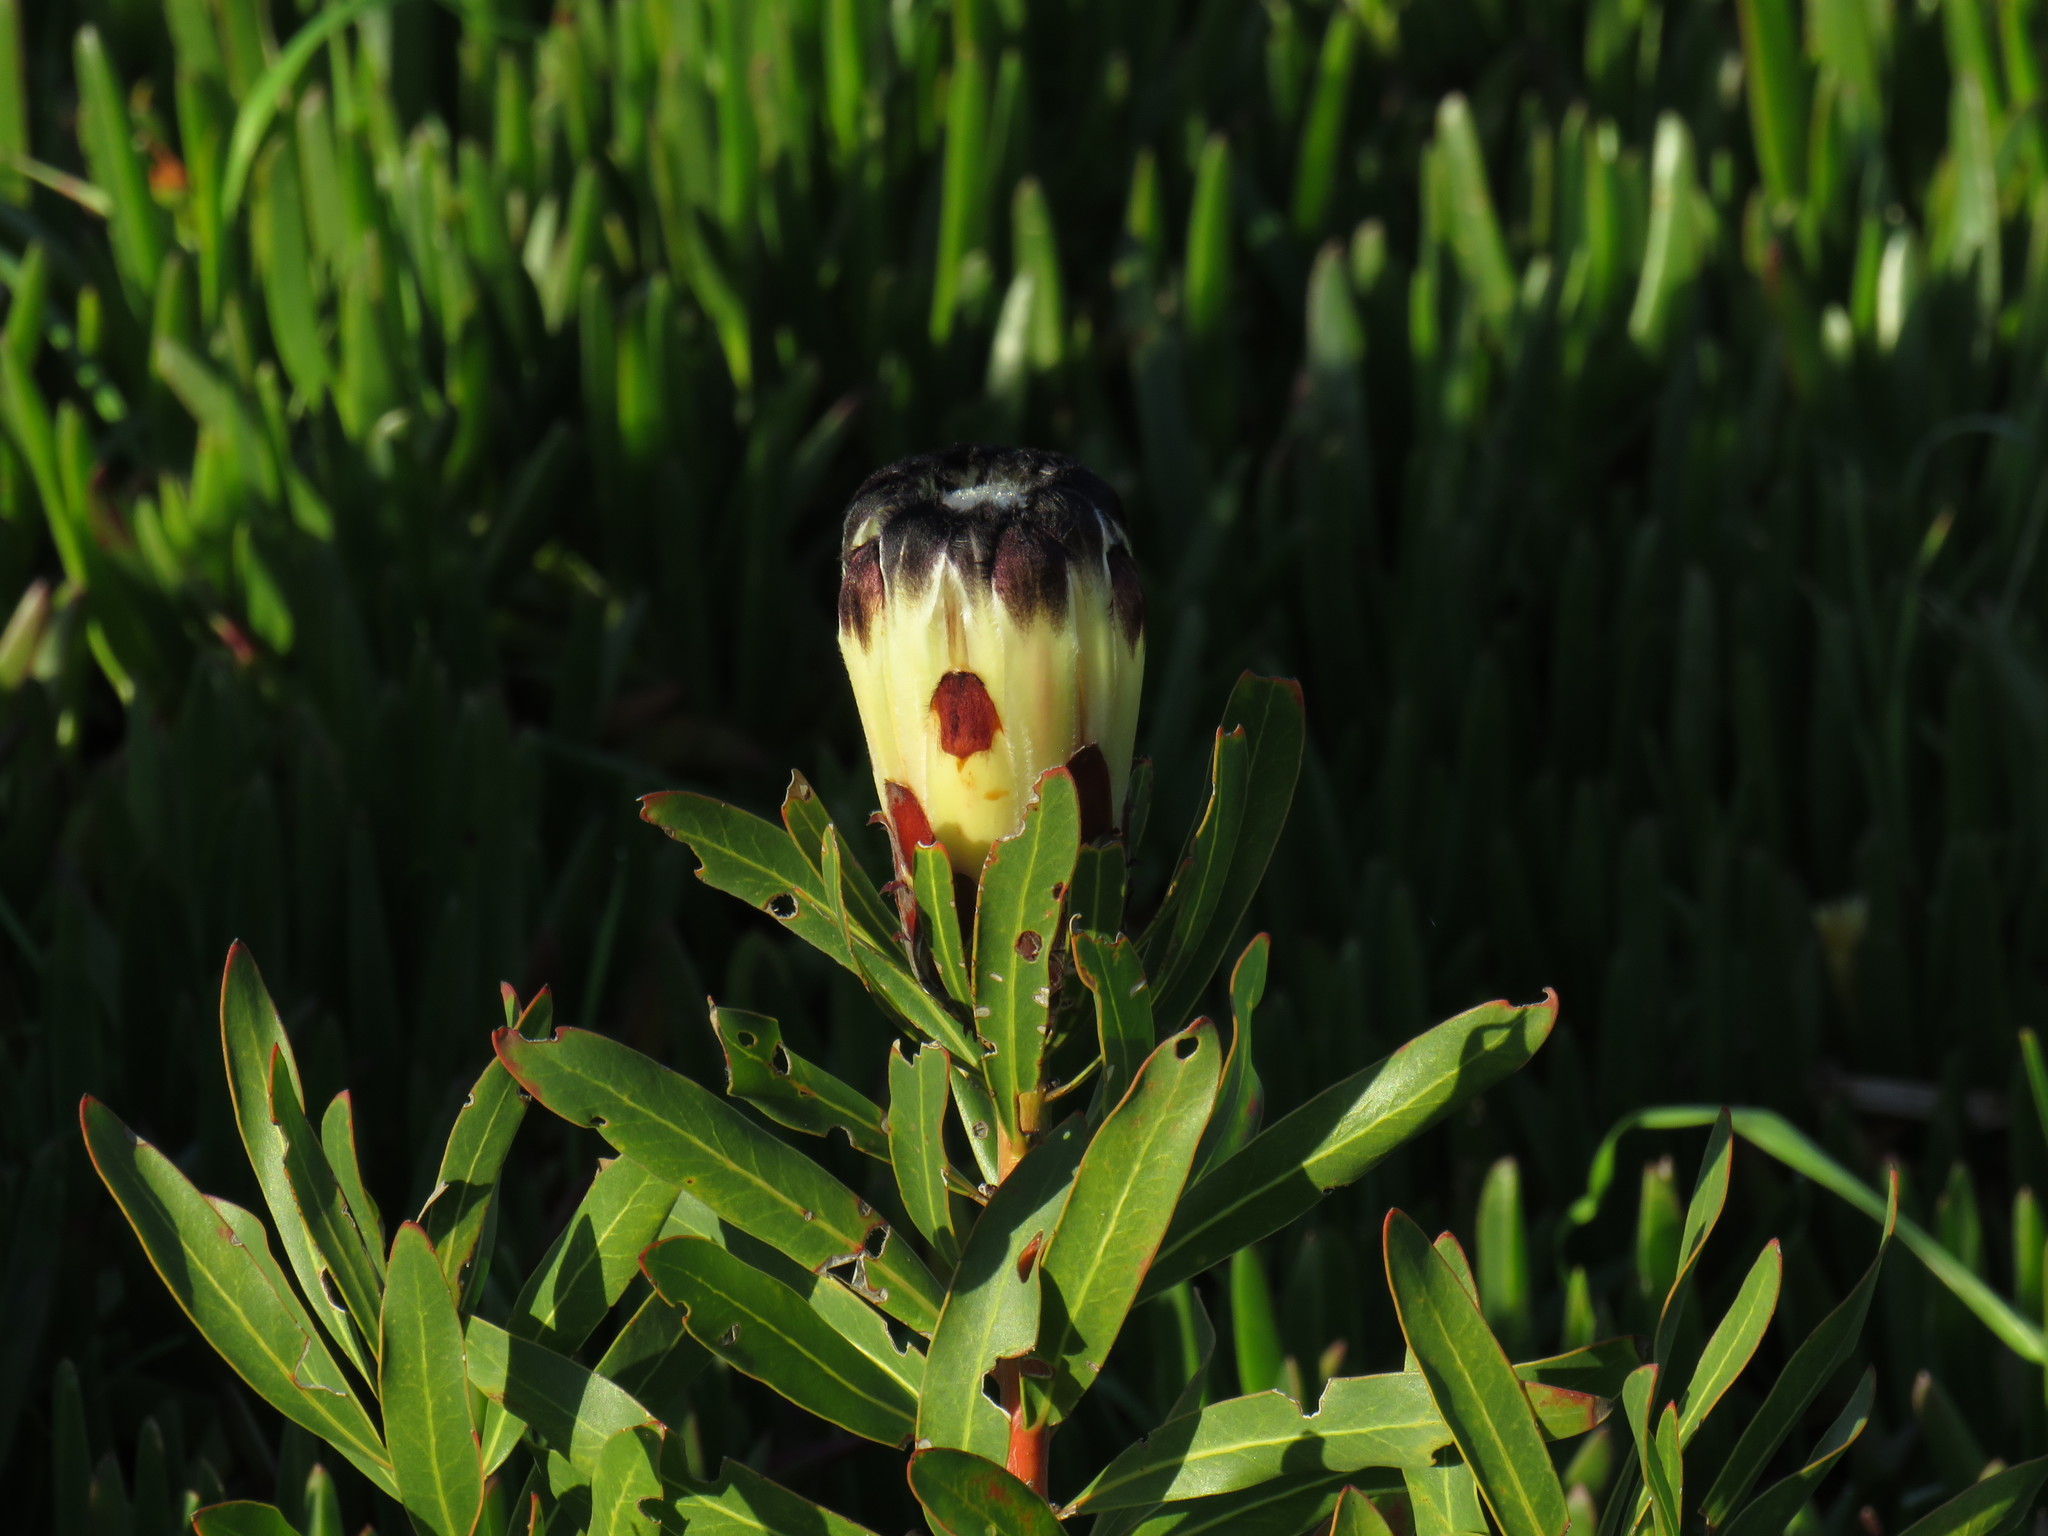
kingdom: Plantae
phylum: Tracheophyta
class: Magnoliopsida
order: Proteales
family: Proteaceae
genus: Protea
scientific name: Protea lepidocarpodendron
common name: Black-bearded protea
